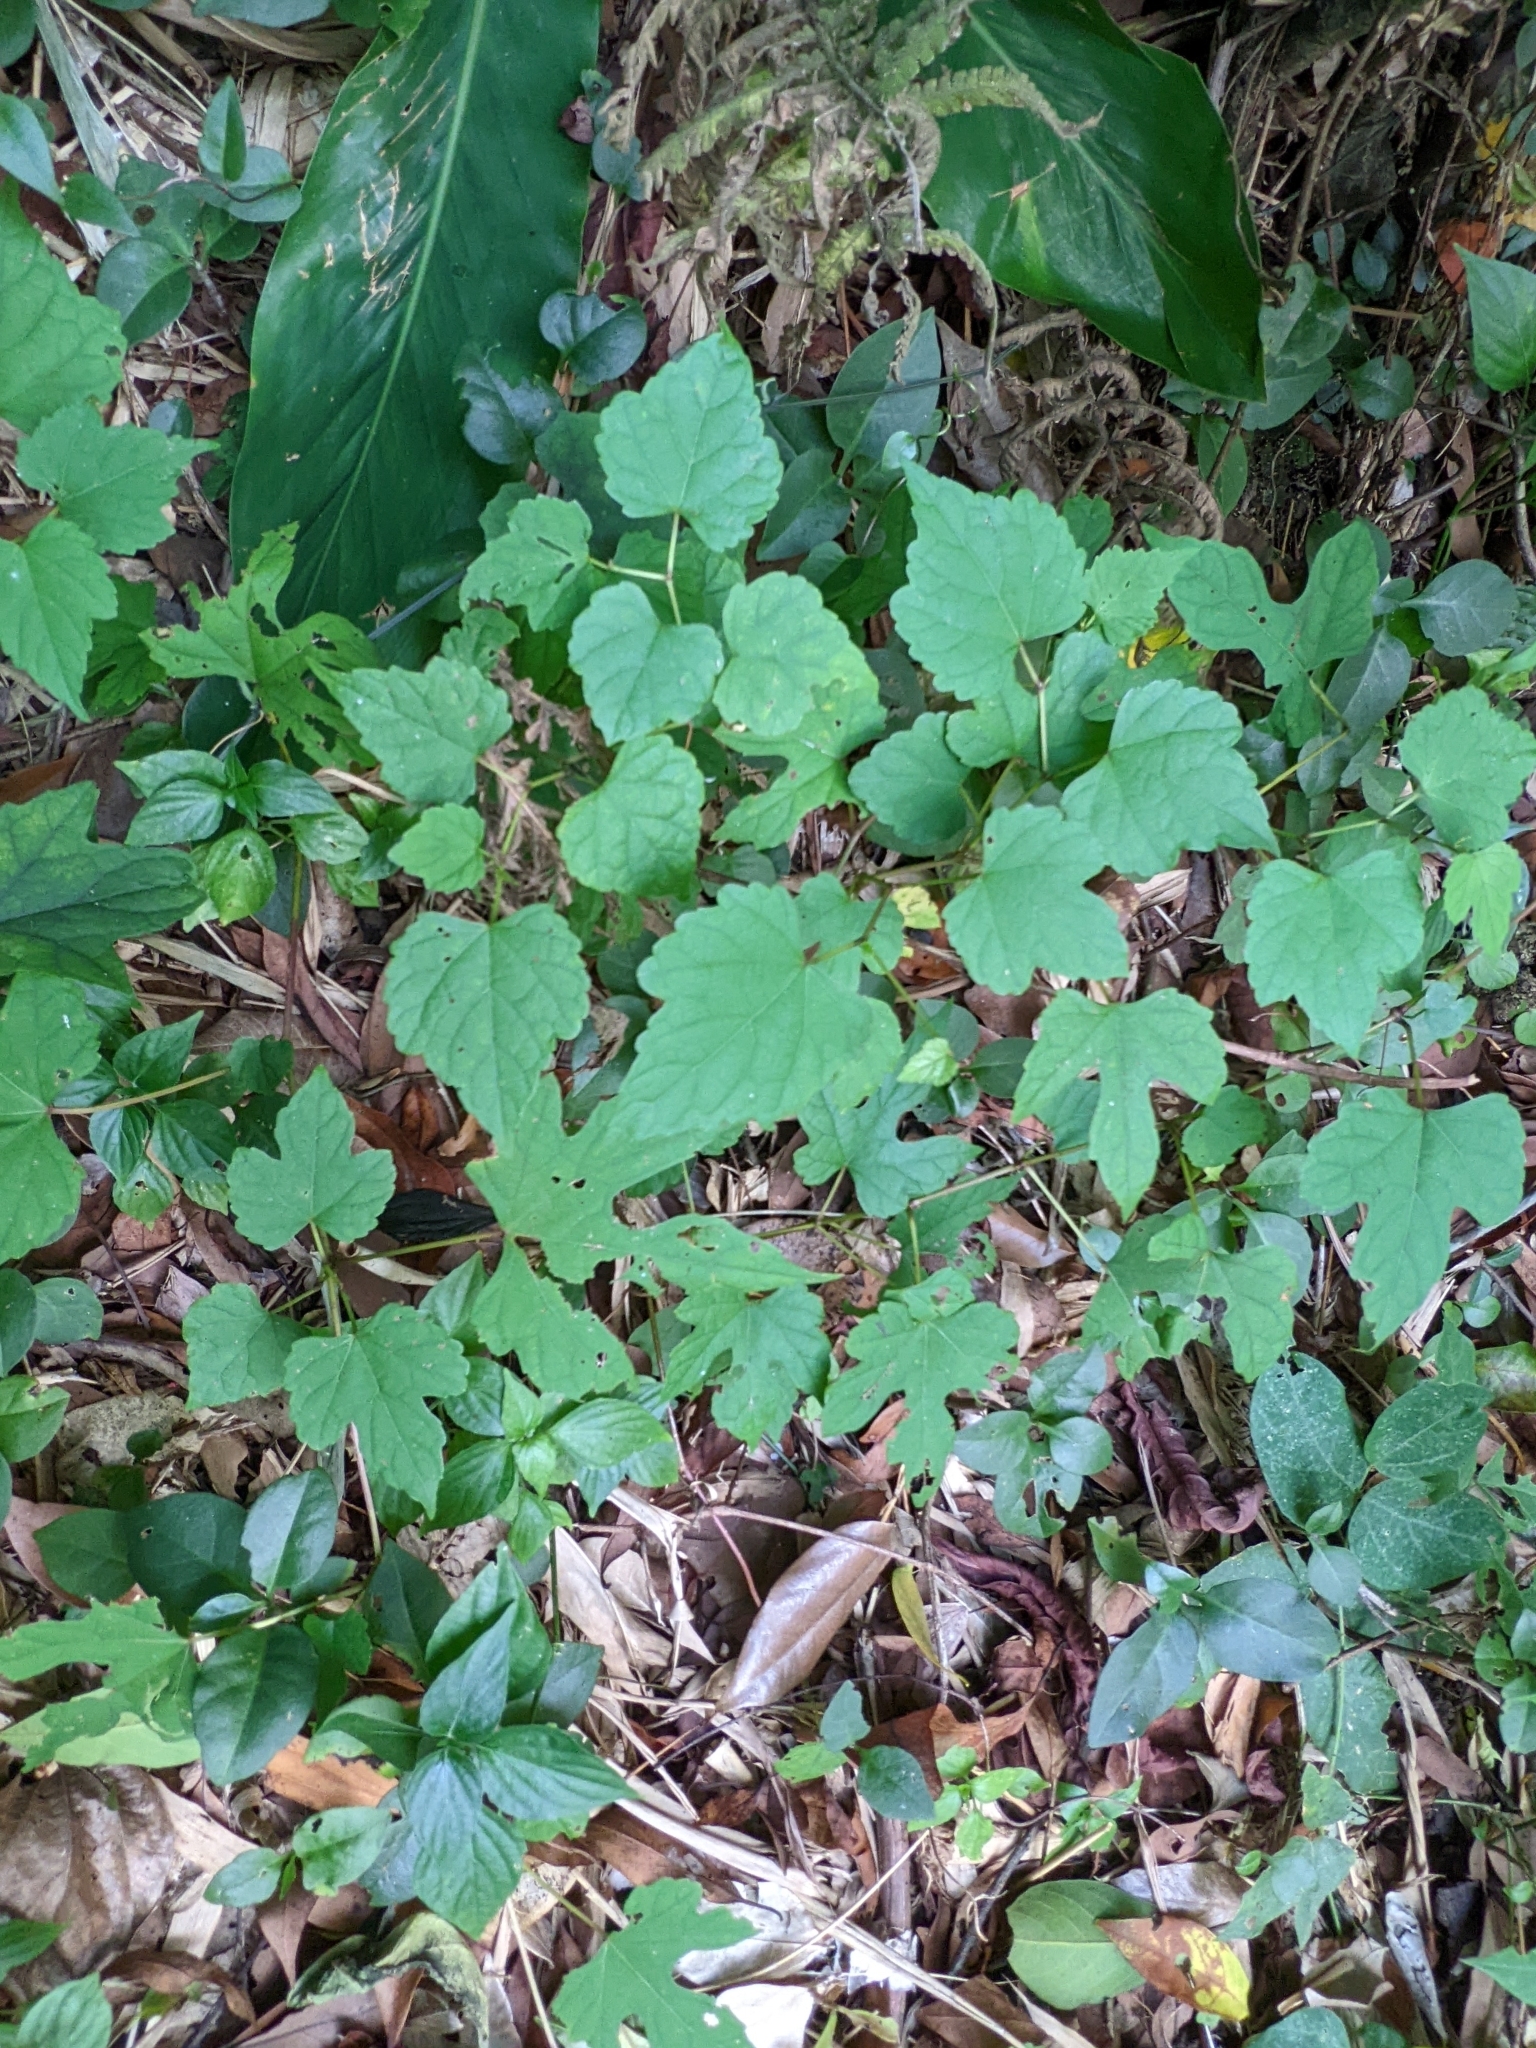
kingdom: Plantae
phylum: Tracheophyta
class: Magnoliopsida
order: Vitales
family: Vitaceae
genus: Ampelopsis
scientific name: Ampelopsis glandulosa
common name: Amur peppervine
